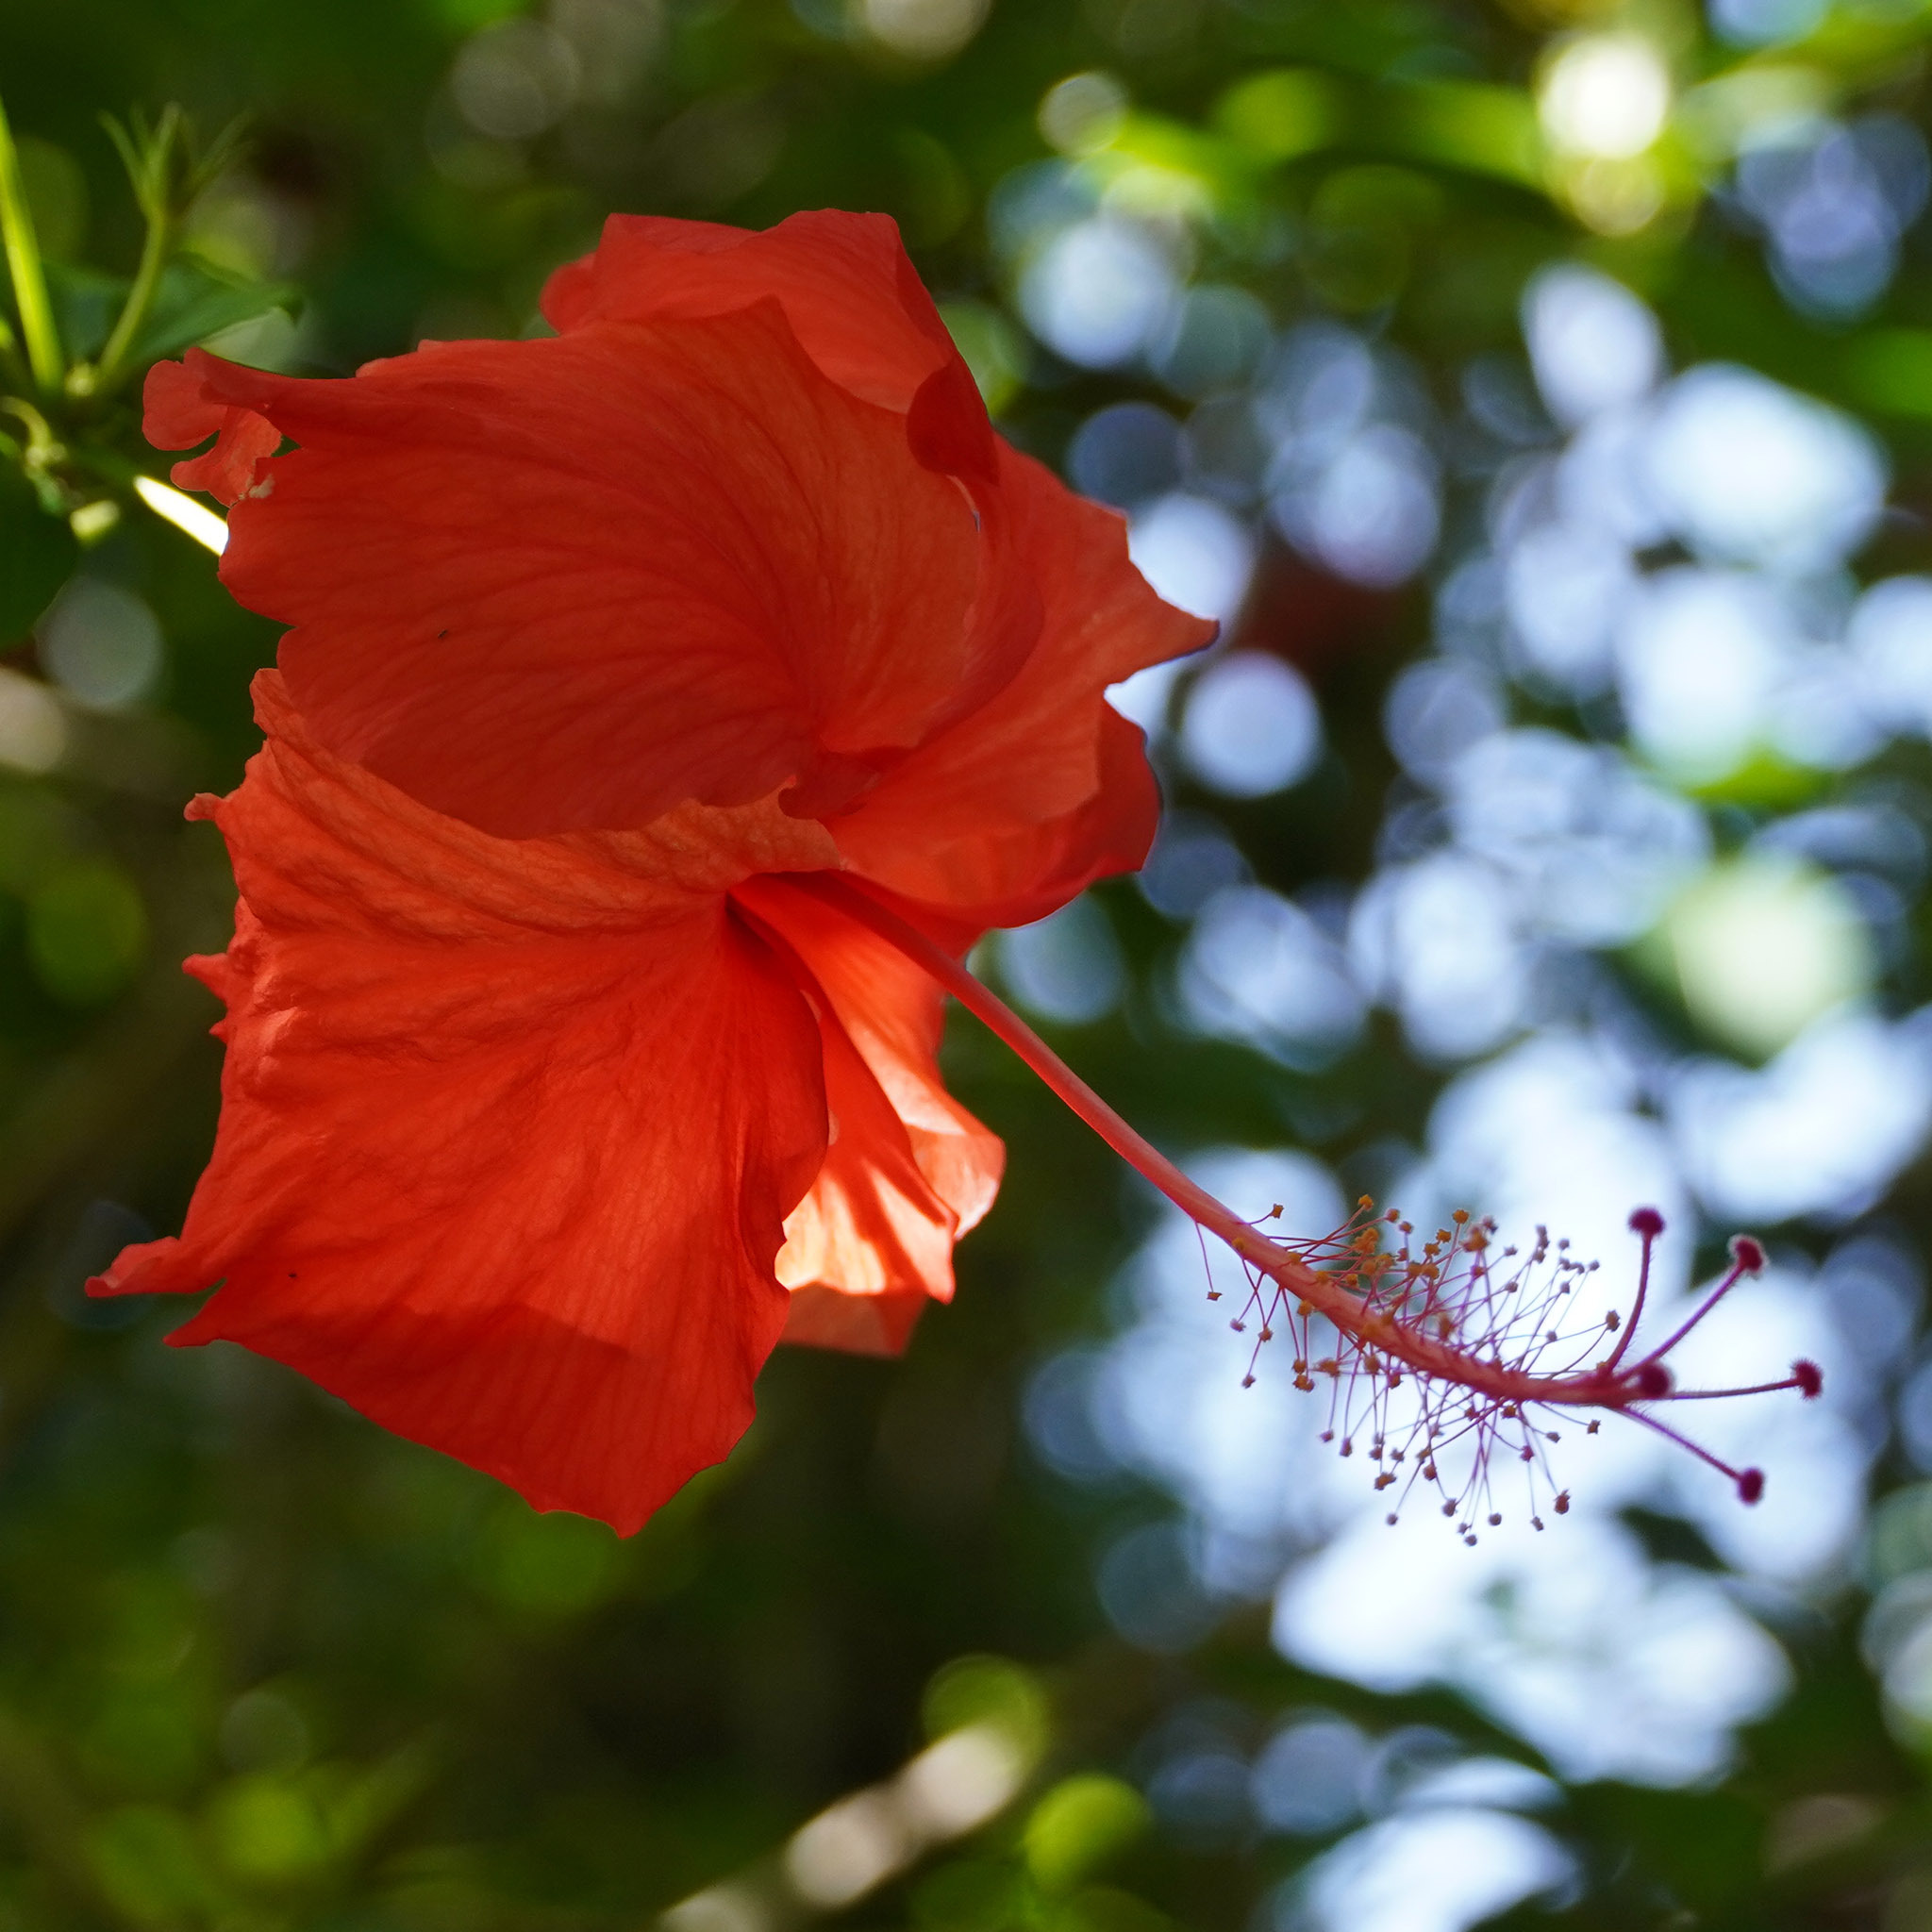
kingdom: Plantae
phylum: Tracheophyta
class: Magnoliopsida
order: Malvales
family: Malvaceae
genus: Hibiscus
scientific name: Hibiscus archeri
